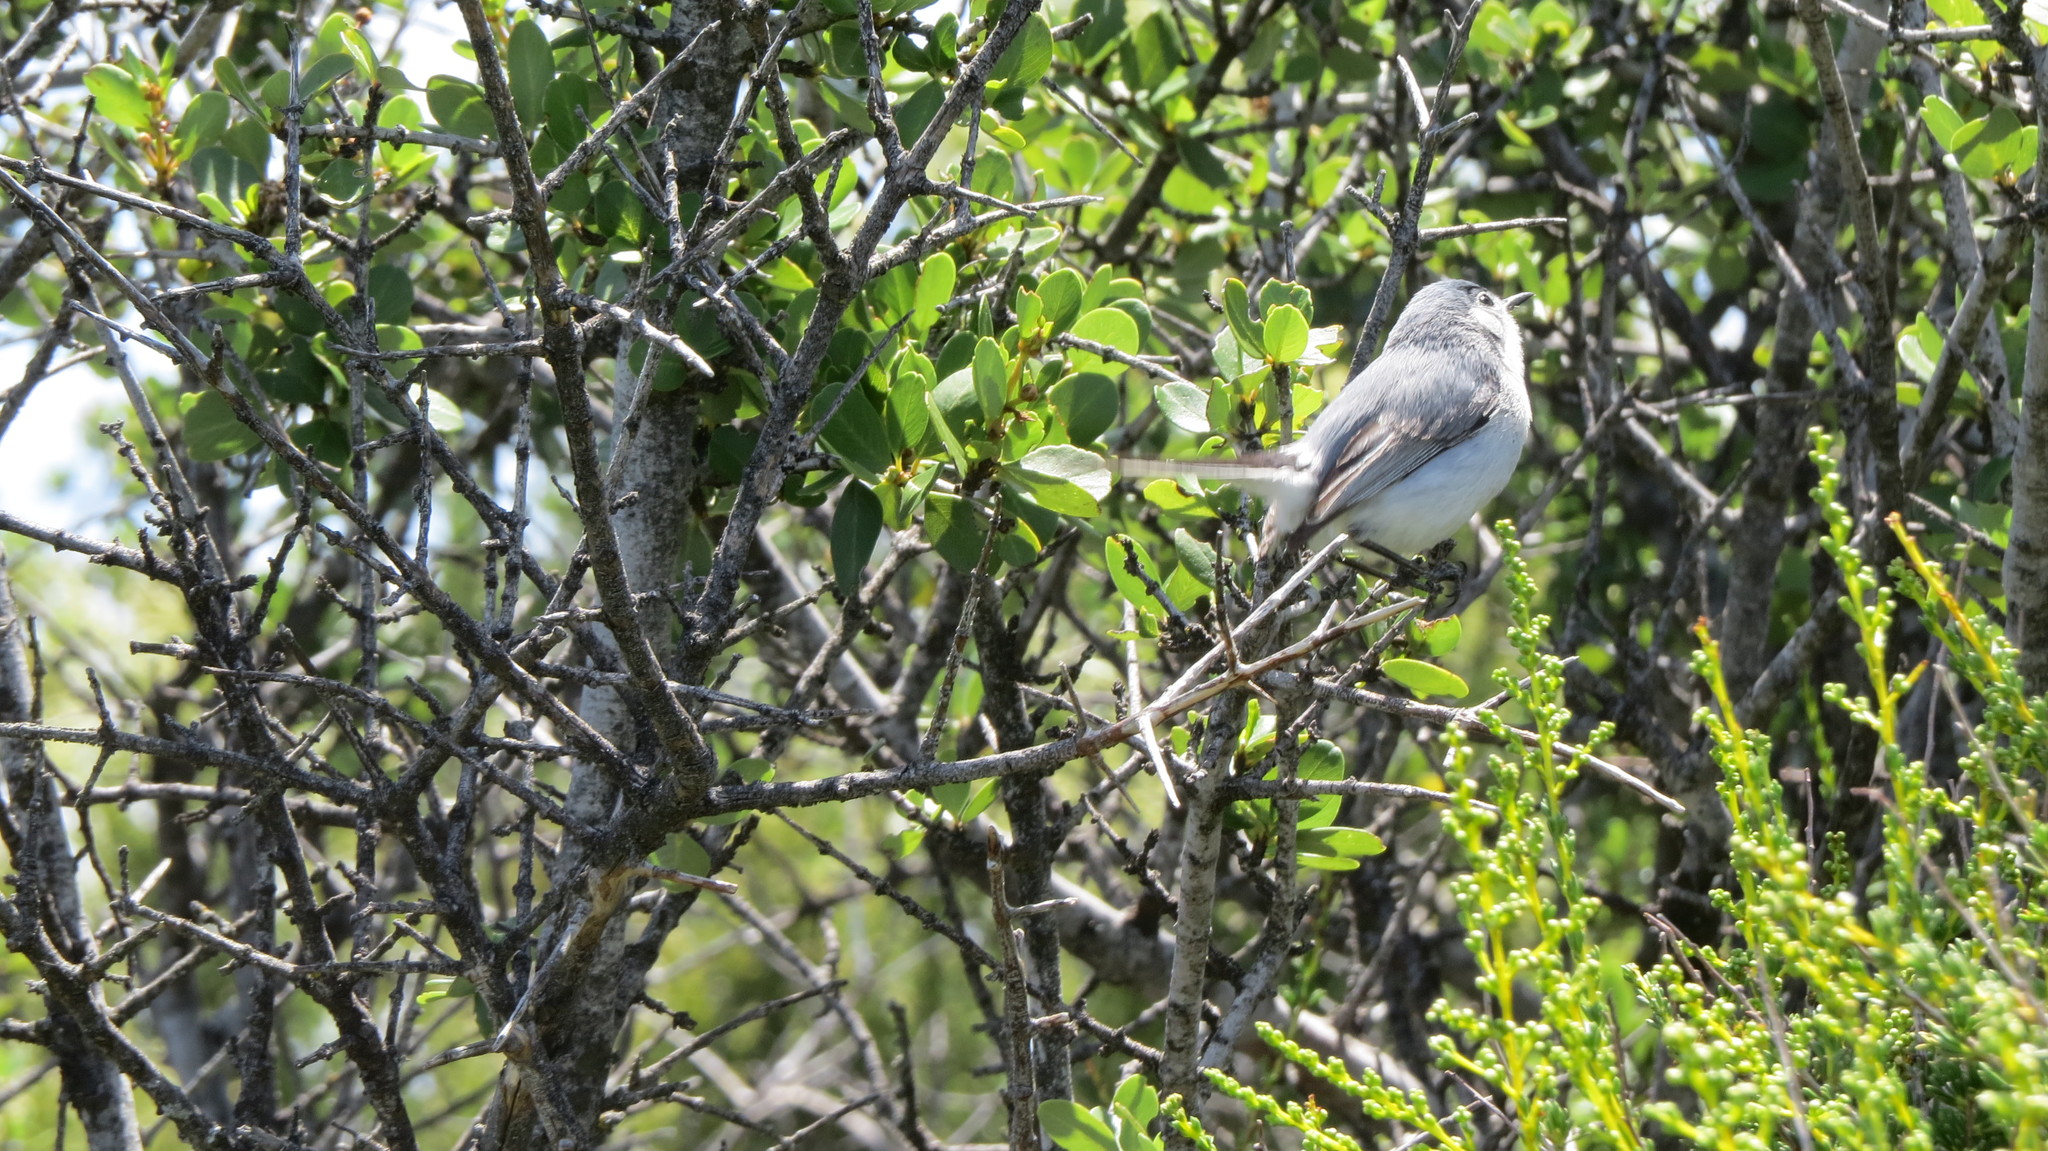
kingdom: Animalia
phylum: Chordata
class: Aves
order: Passeriformes
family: Polioptilidae
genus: Polioptila
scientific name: Polioptila caerulea
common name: Blue-gray gnatcatcher
